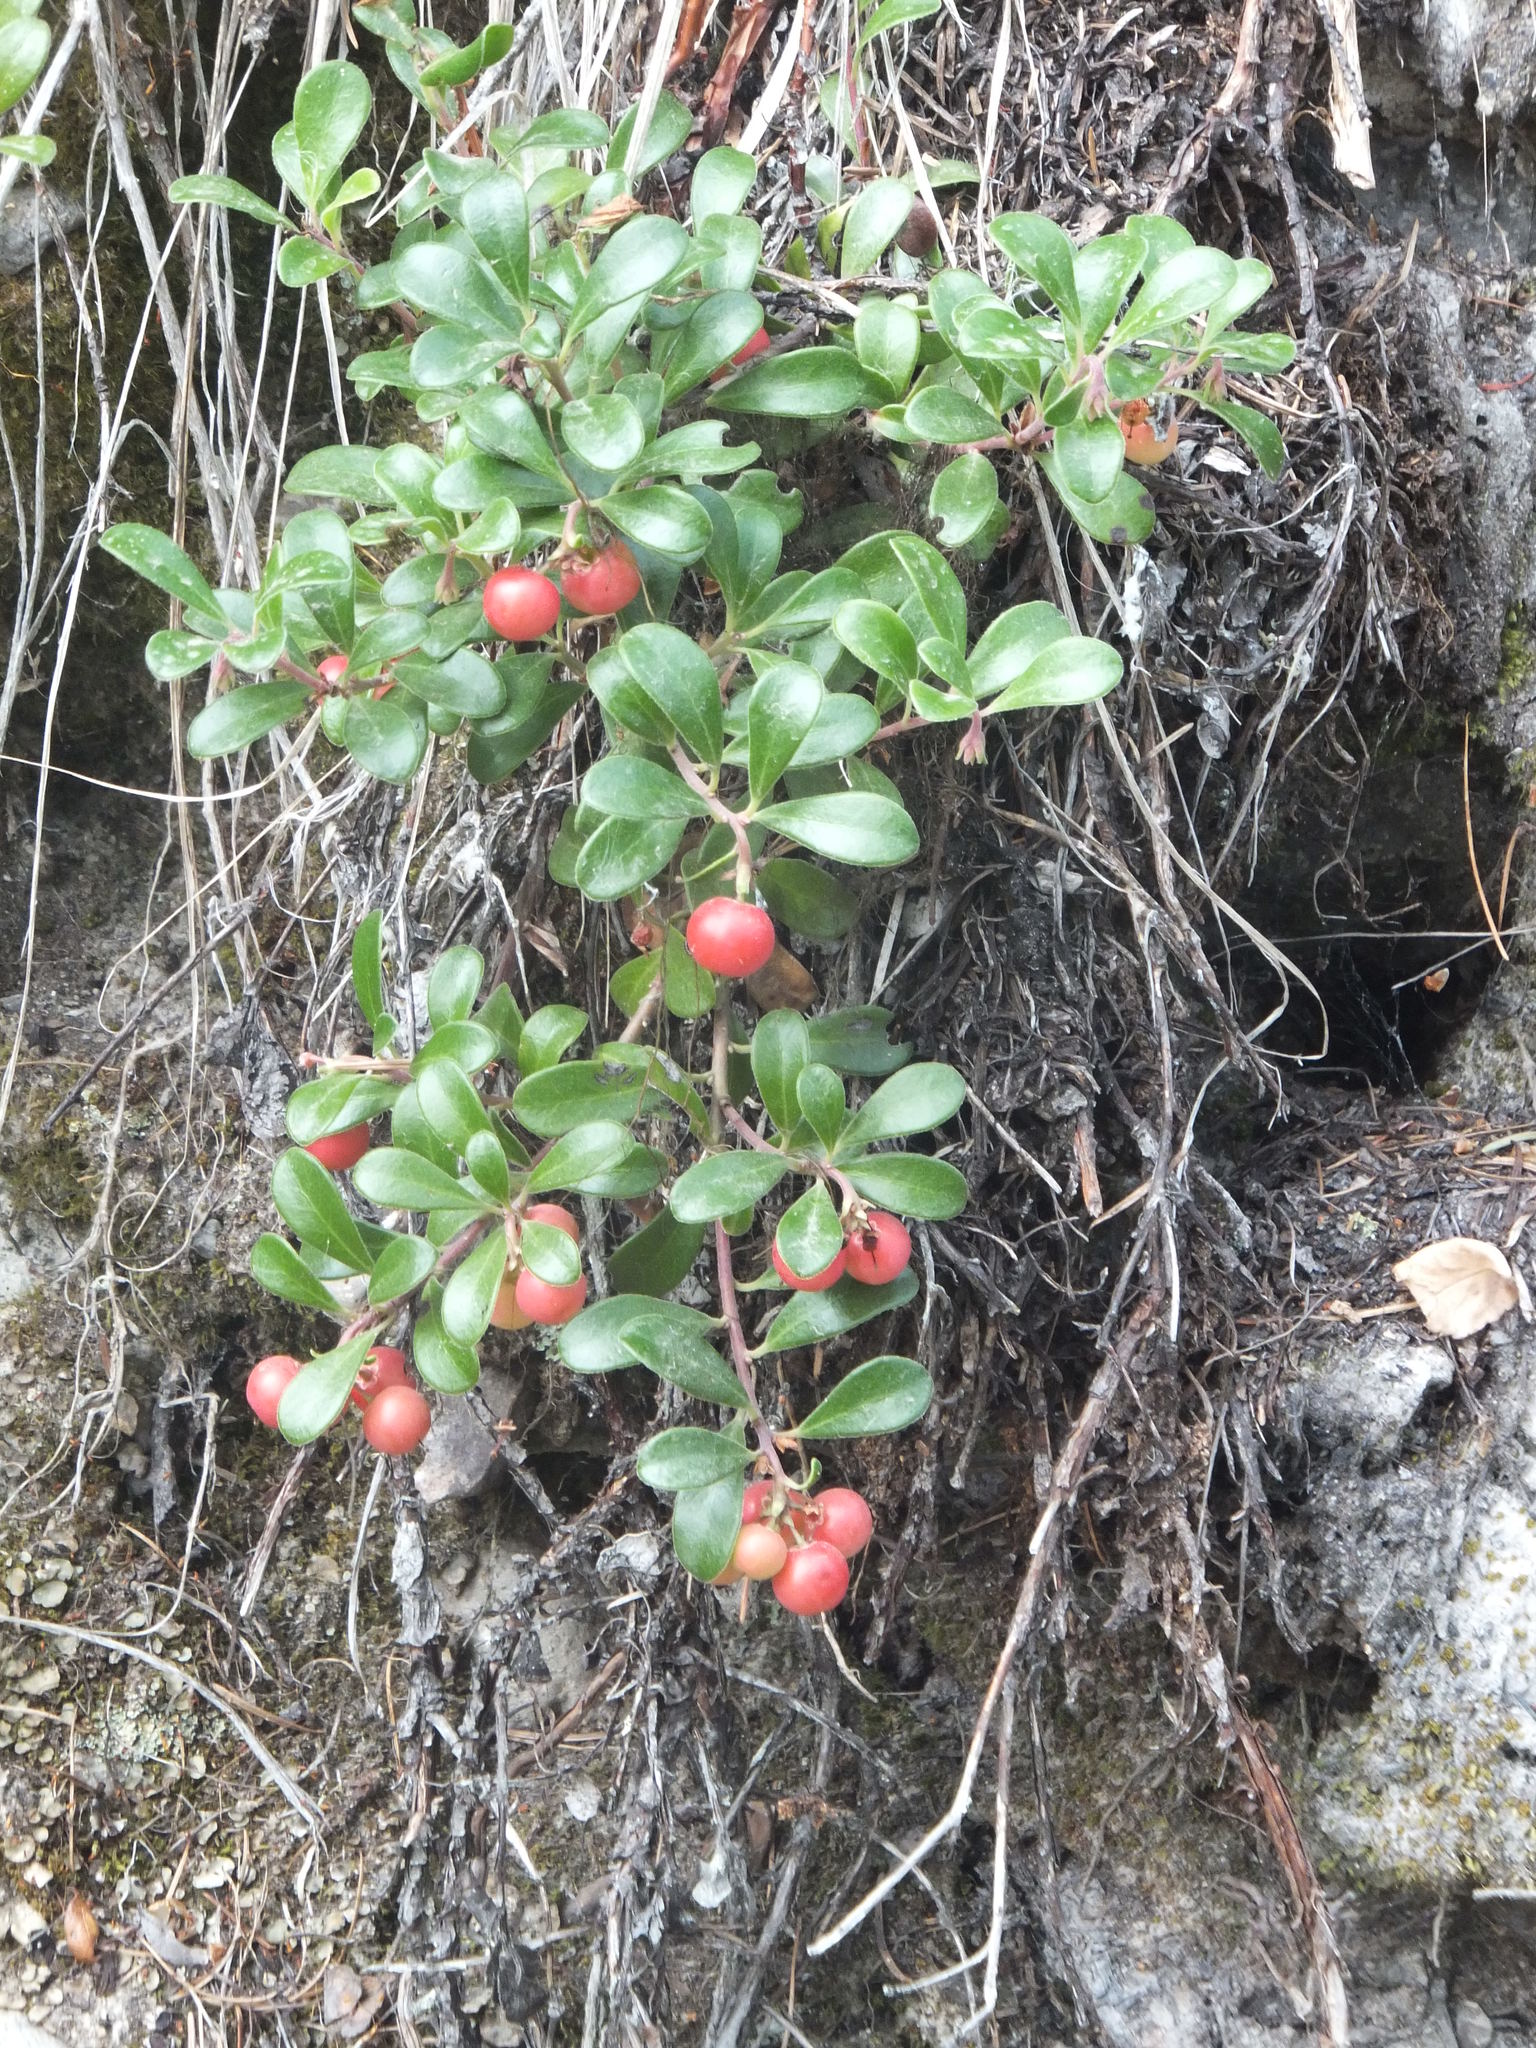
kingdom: Plantae
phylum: Tracheophyta
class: Magnoliopsida
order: Ericales
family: Ericaceae
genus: Arctostaphylos
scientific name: Arctostaphylos uva-ursi
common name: Bearberry
